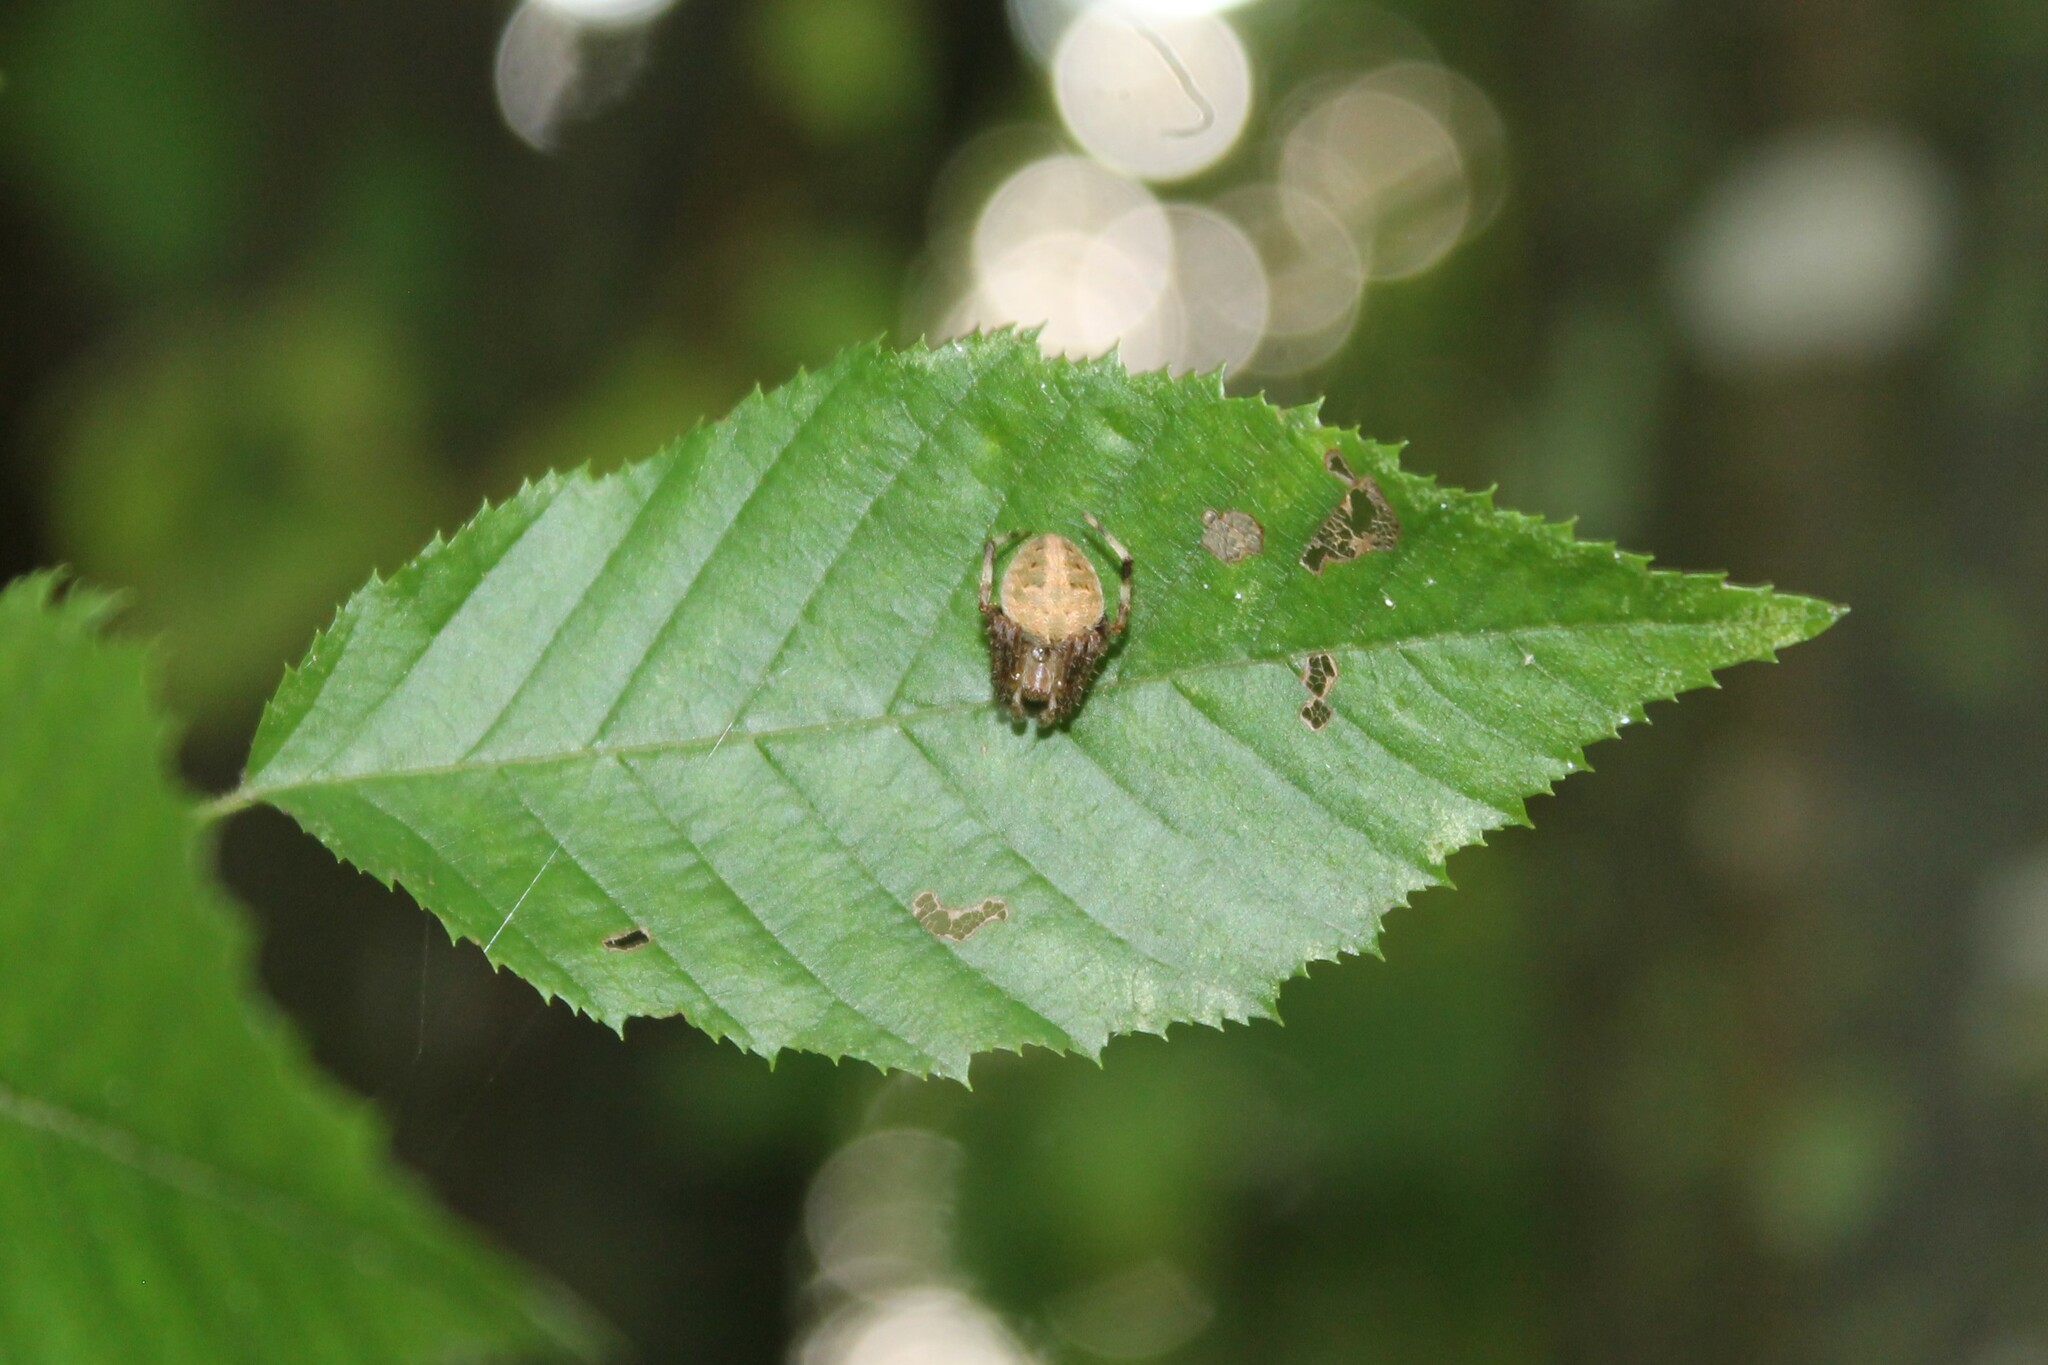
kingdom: Animalia
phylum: Arthropoda
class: Arachnida
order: Araneae
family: Araneidae
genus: Neoscona
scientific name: Neoscona crucifera
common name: Spotted orbweaver
